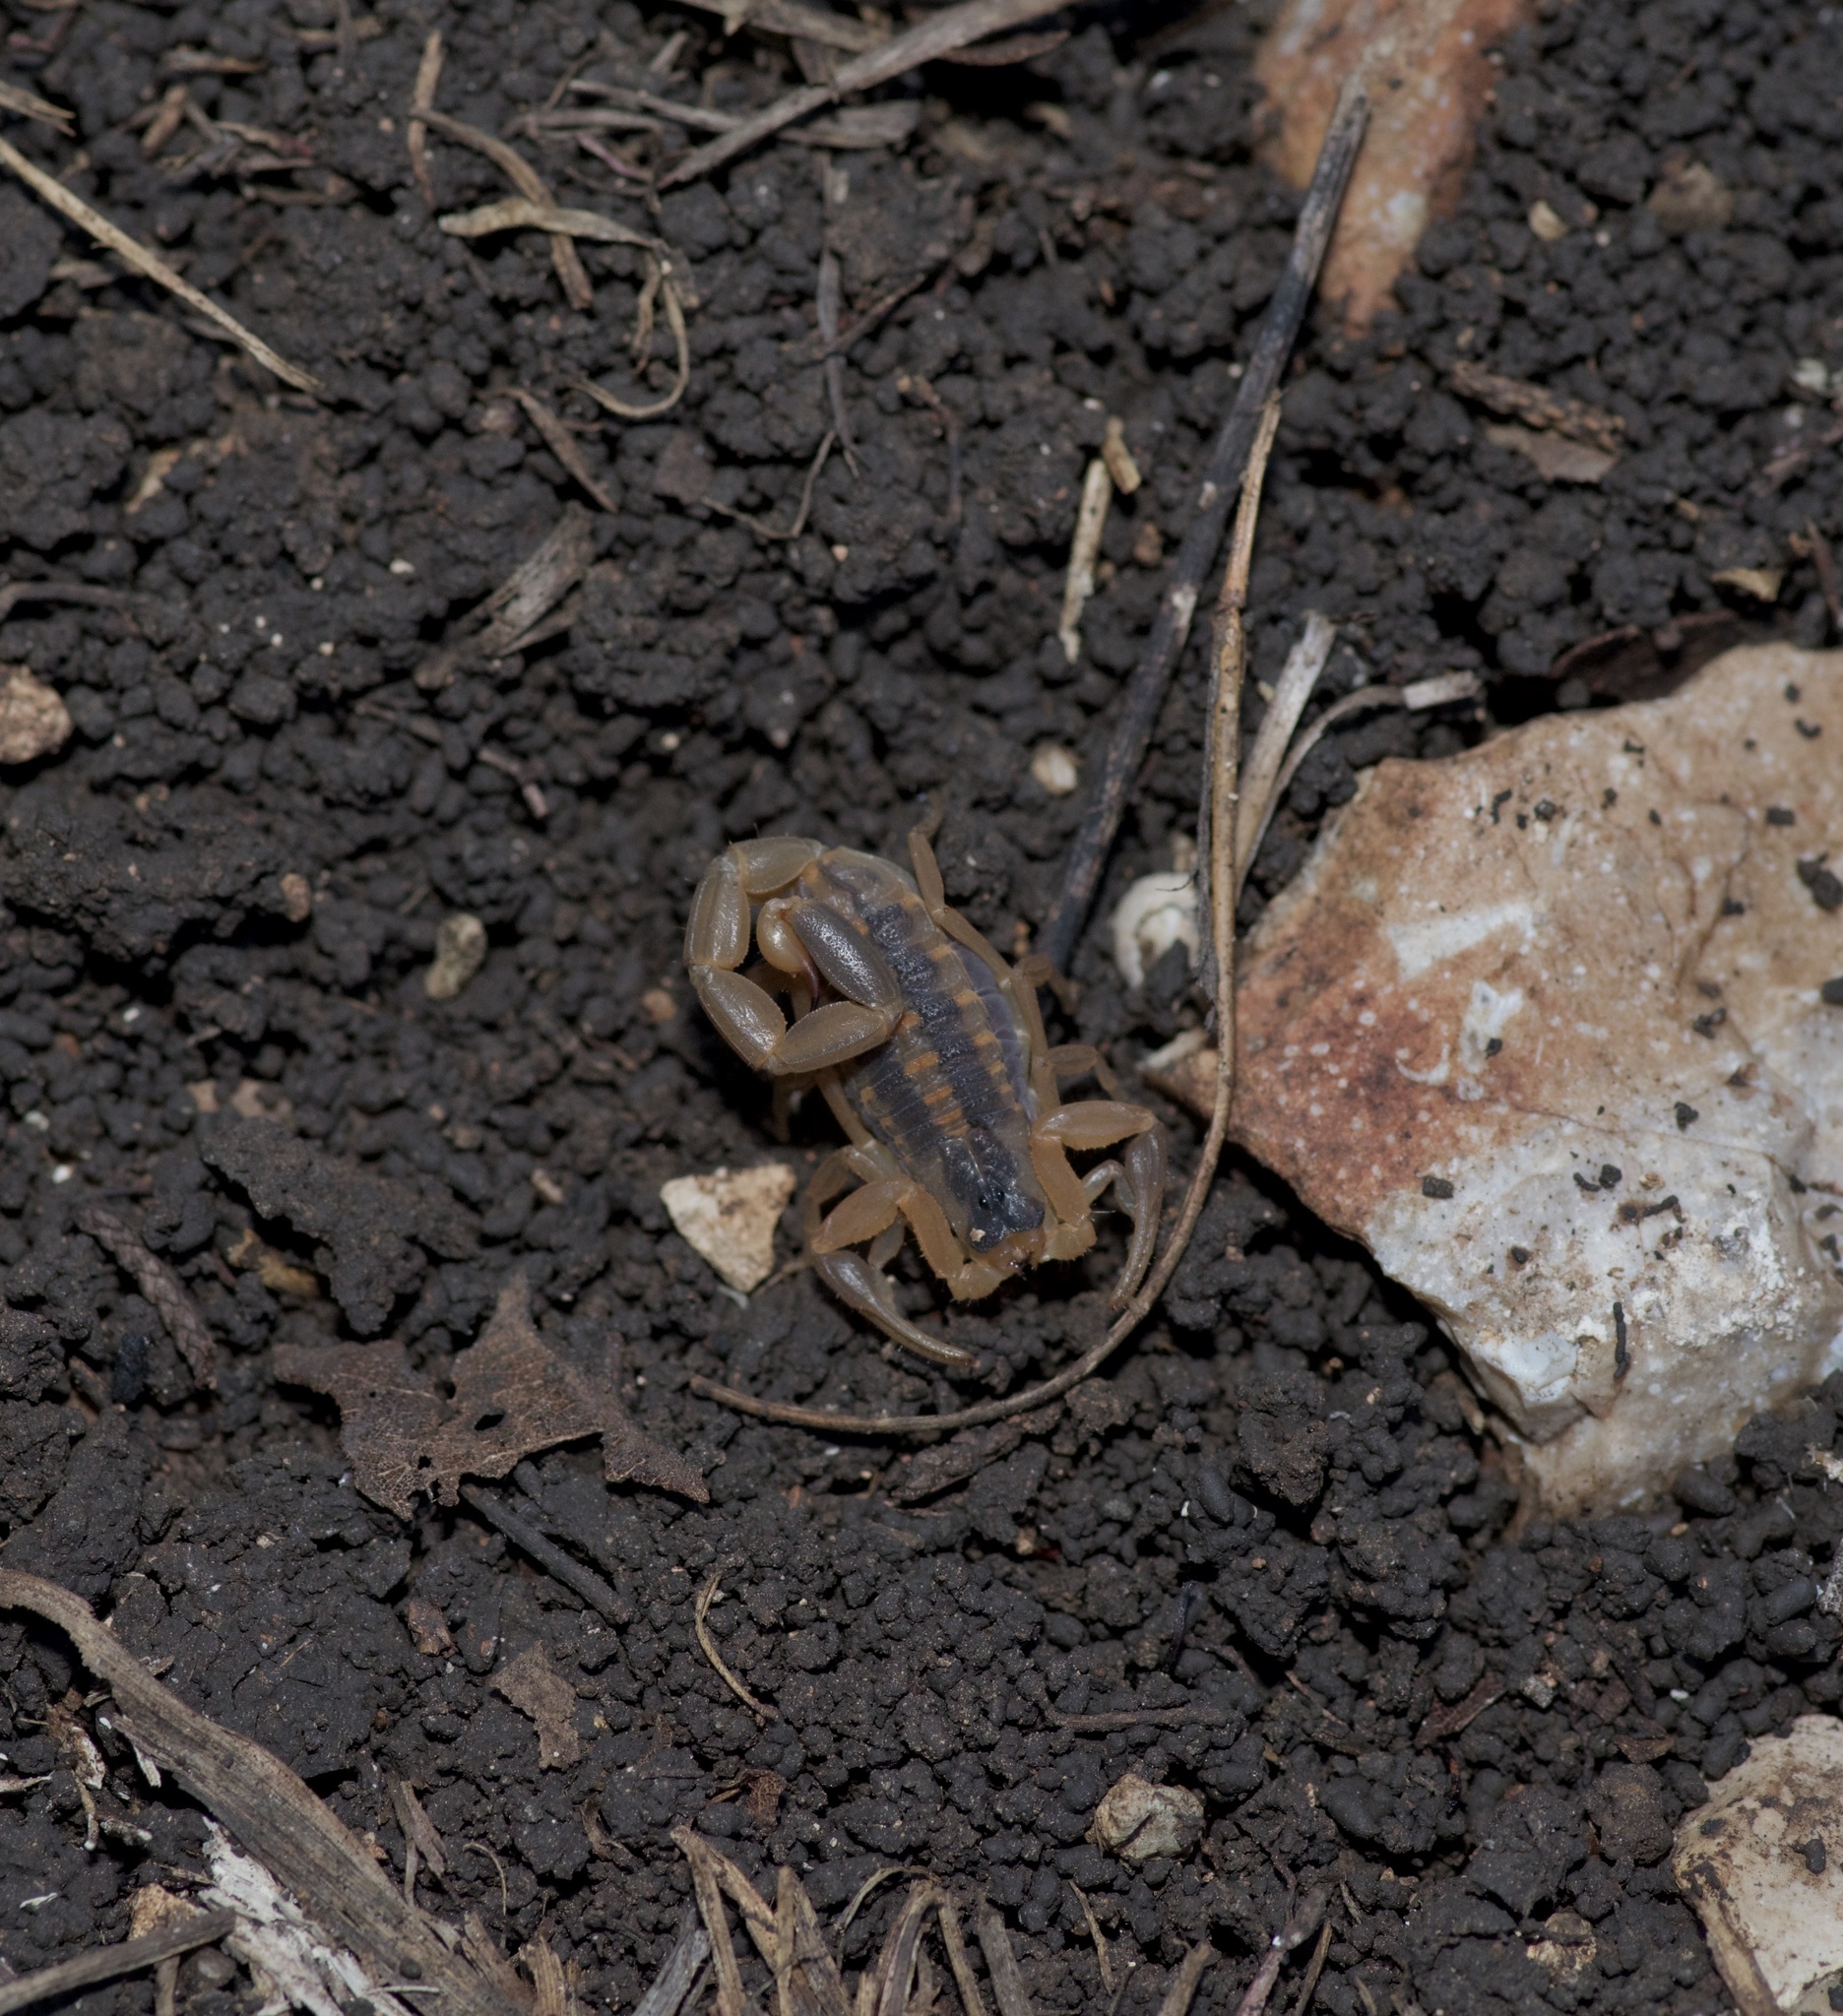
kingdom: Animalia
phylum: Arthropoda
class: Arachnida
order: Scorpiones
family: Buthidae
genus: Centruroides
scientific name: Centruroides vittatus
